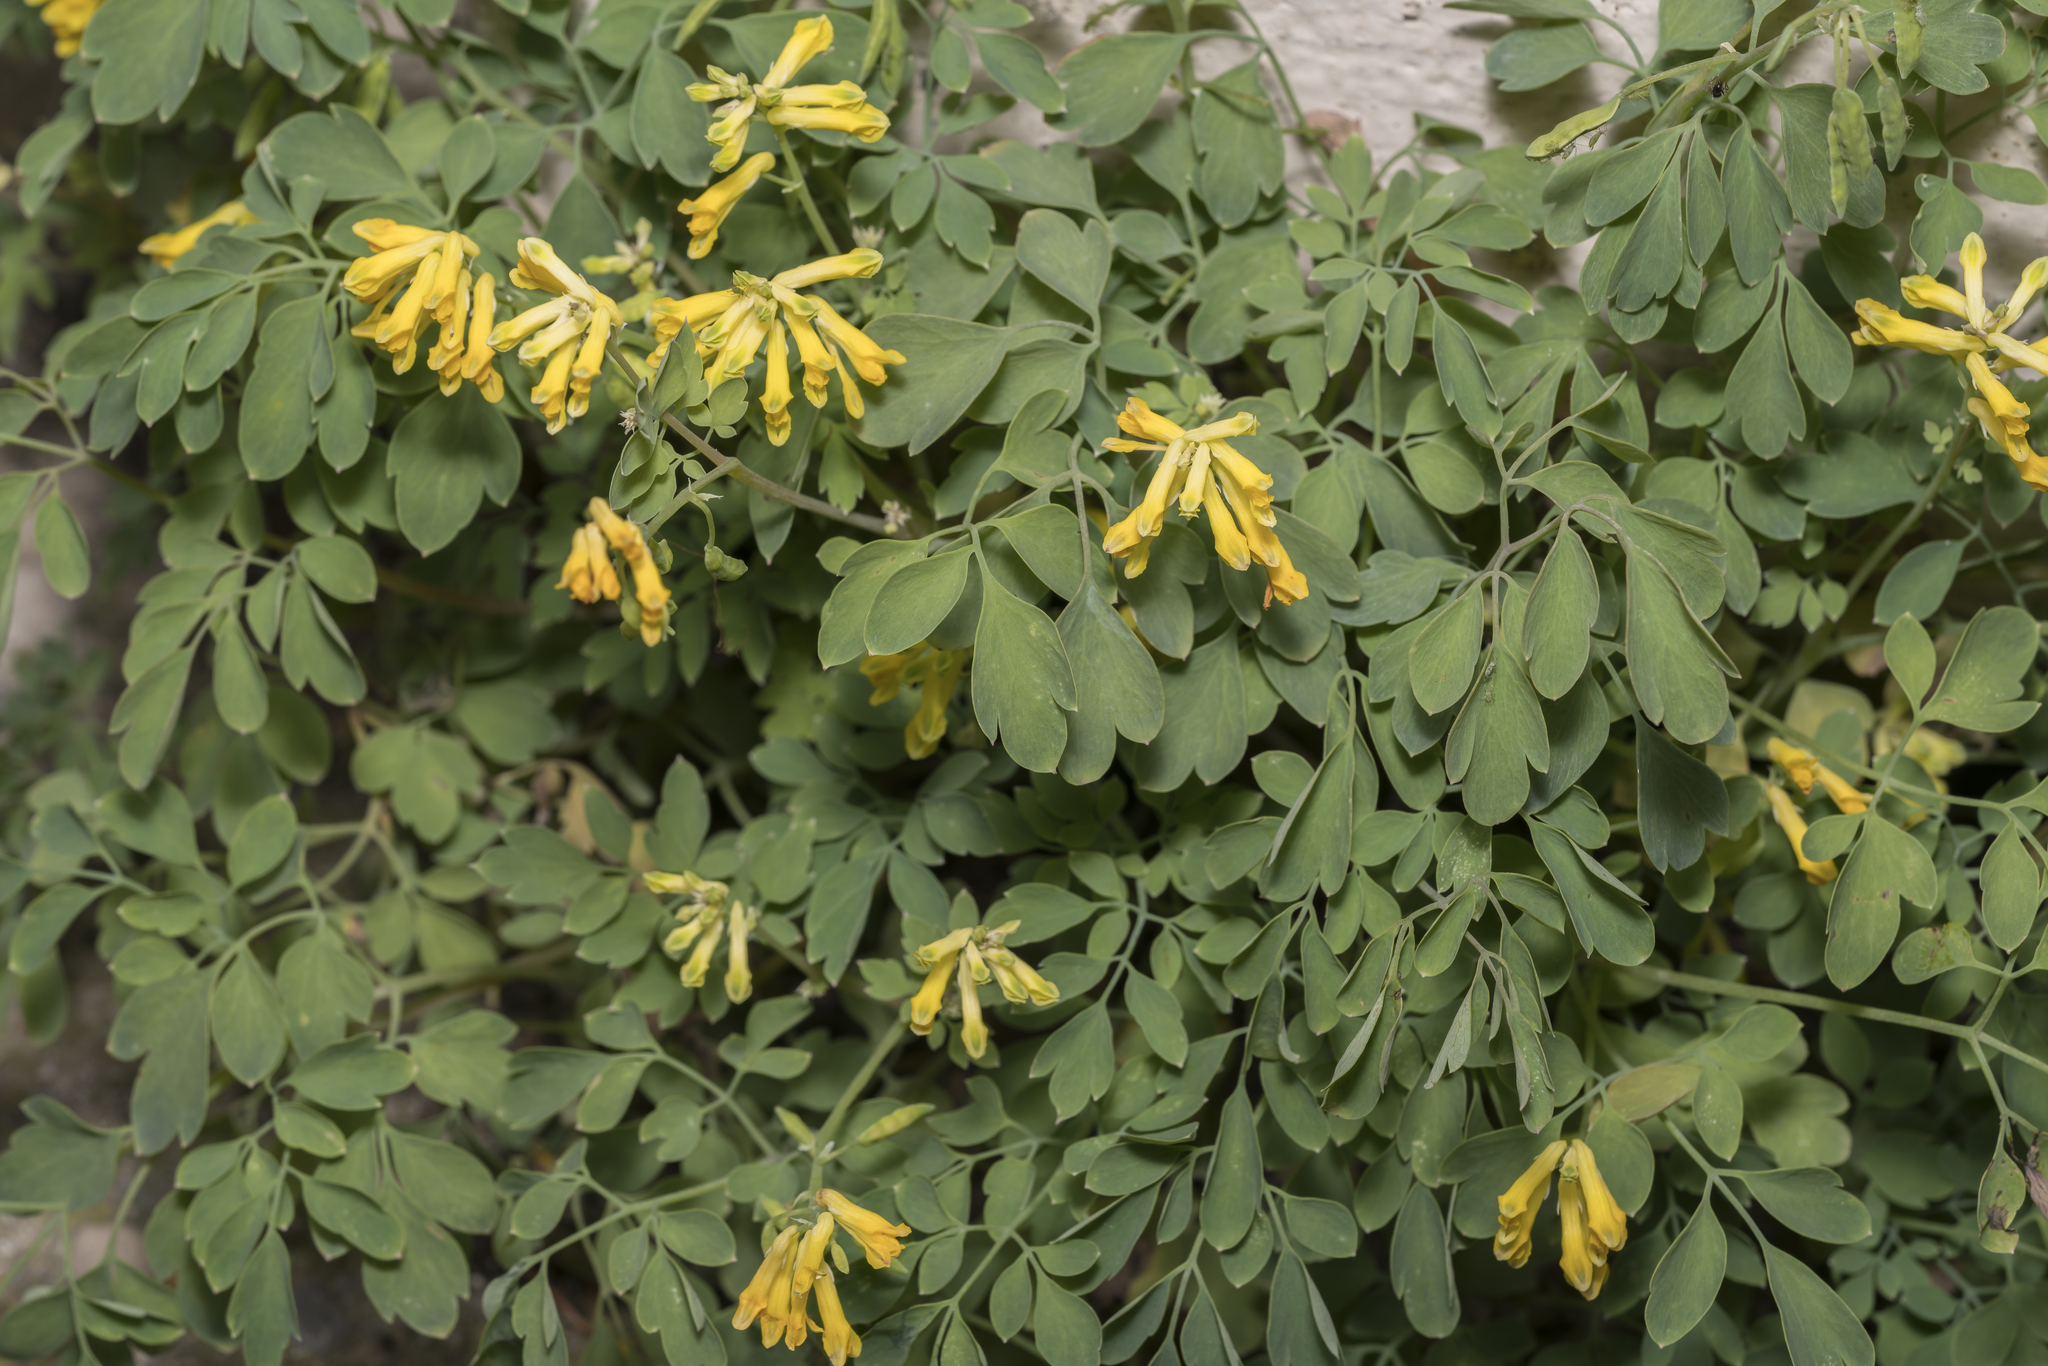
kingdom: Plantae
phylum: Tracheophyta
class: Magnoliopsida
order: Ranunculales
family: Papaveraceae
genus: Pseudofumaria
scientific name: Pseudofumaria lutea
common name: Yellow corydalis
